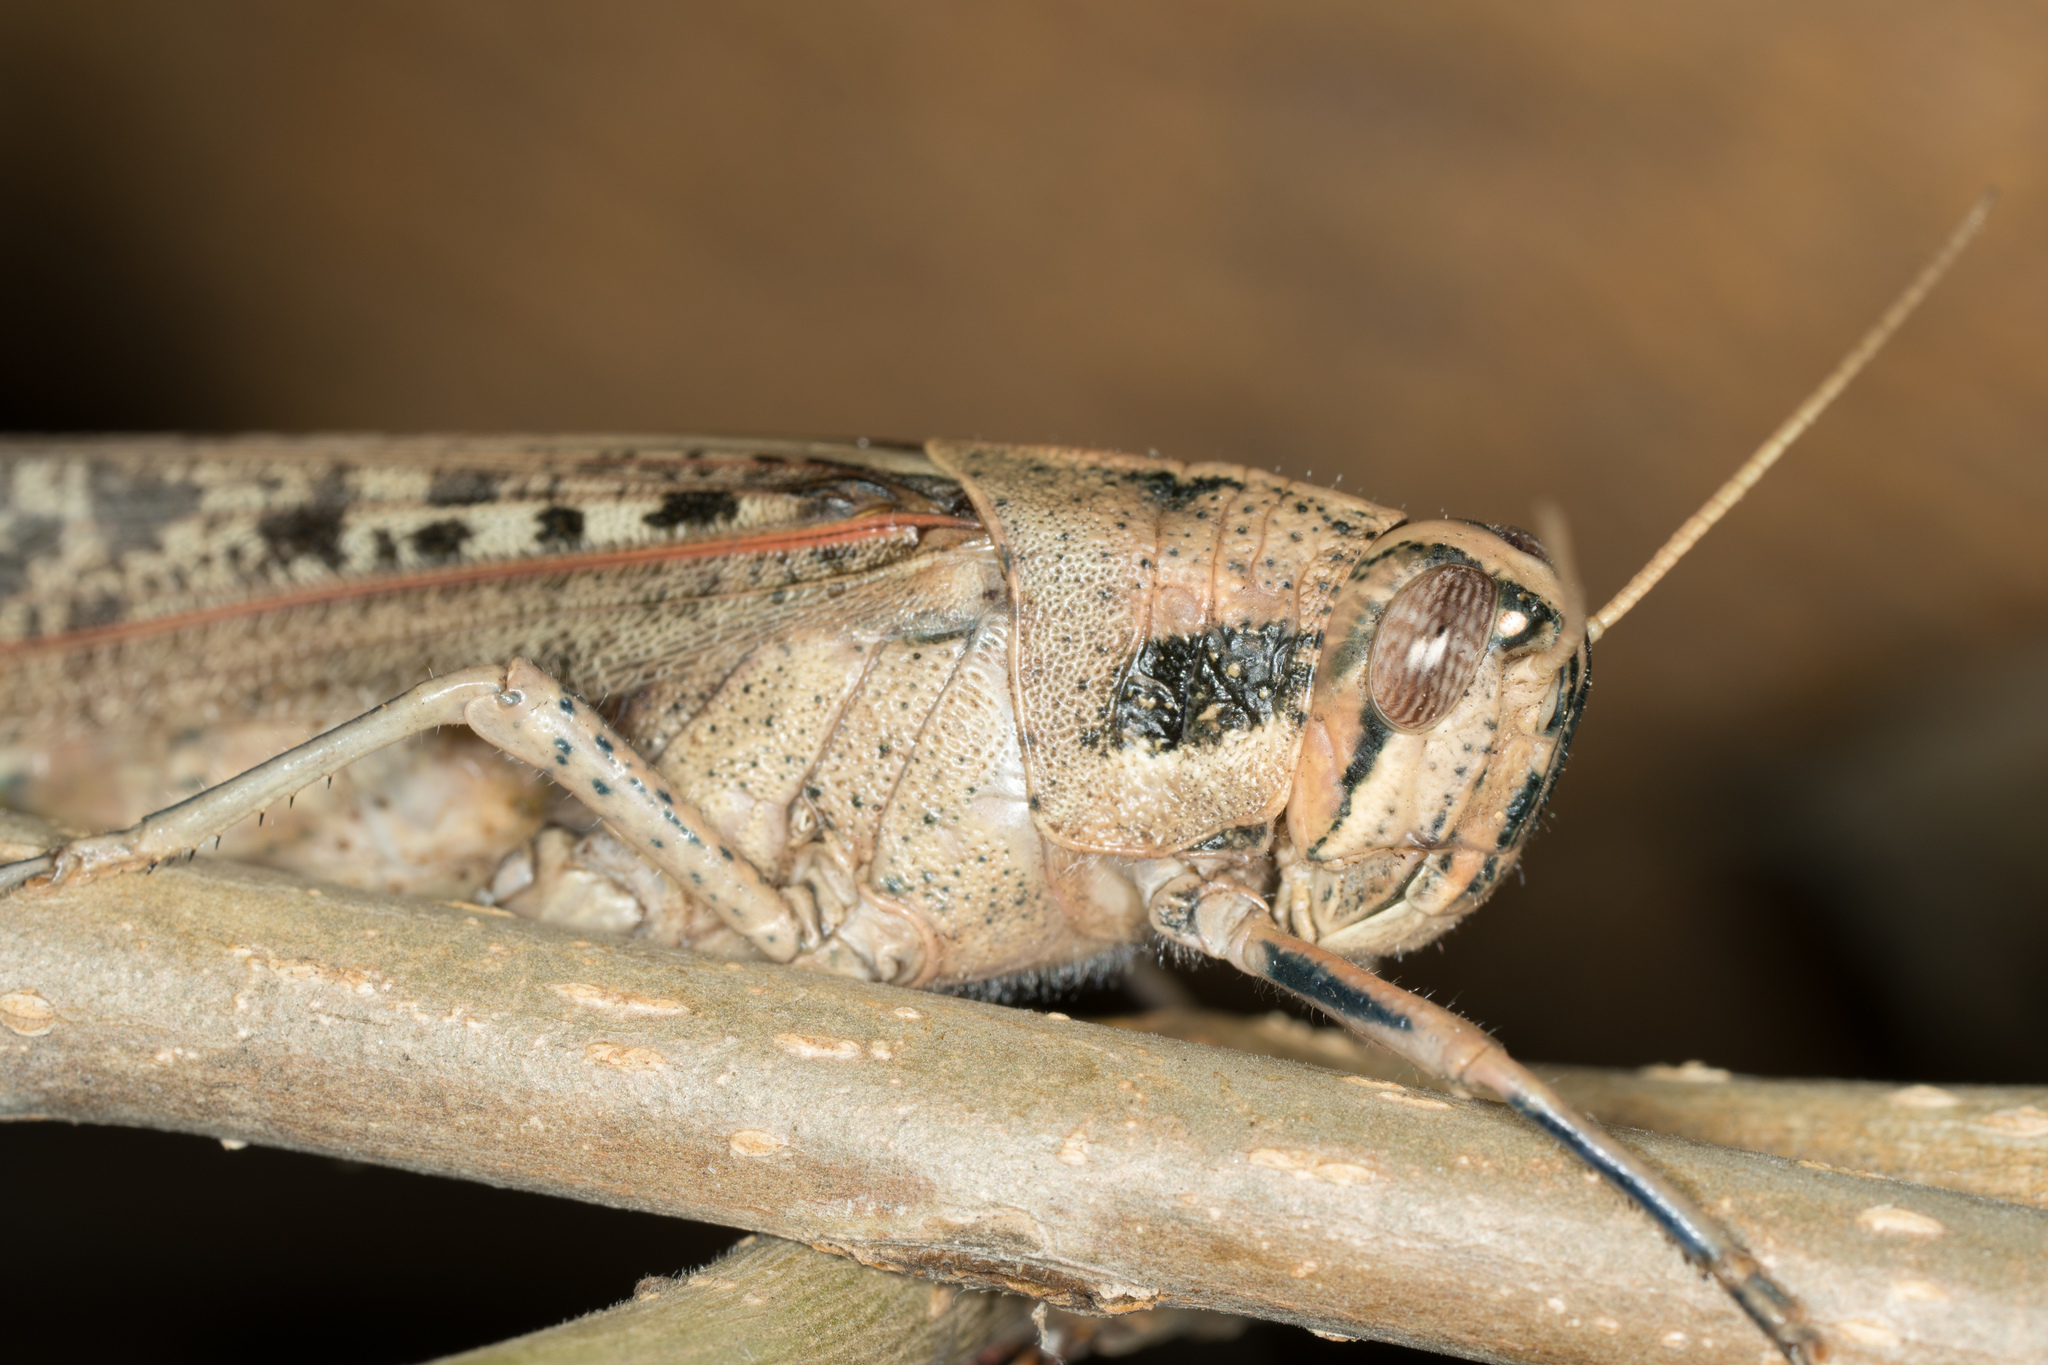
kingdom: Animalia
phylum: Arthropoda
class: Insecta
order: Orthoptera
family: Acrididae
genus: Schistocerca
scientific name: Schistocerca nitens
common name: Vagrant grasshopper
